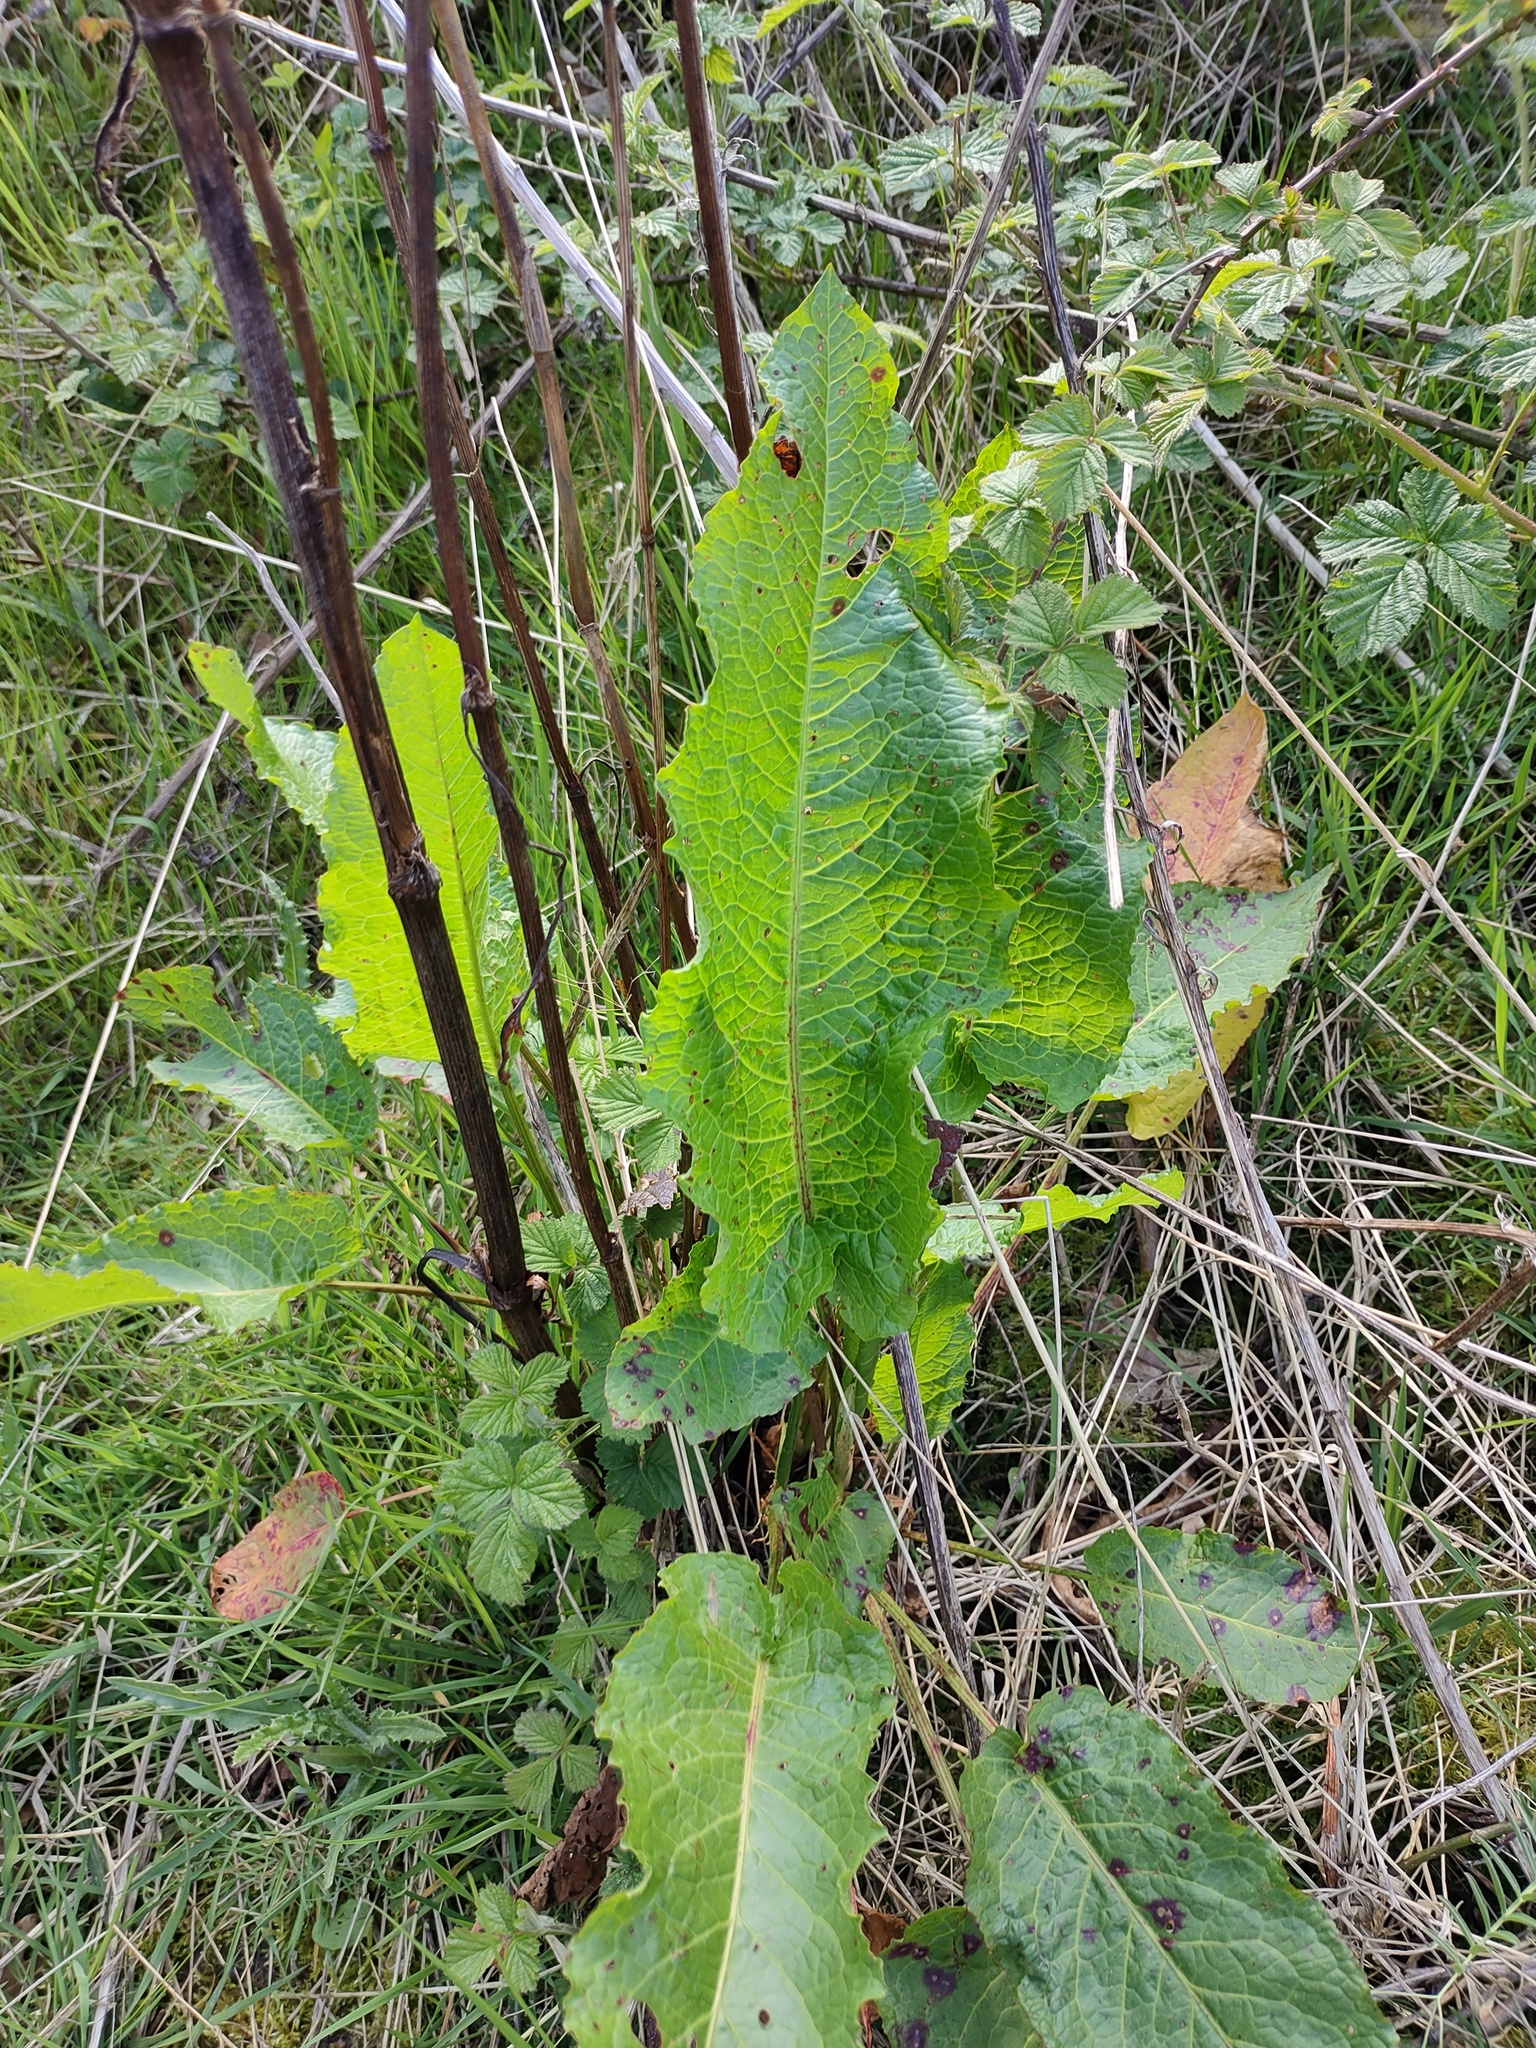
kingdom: Plantae
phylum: Tracheophyta
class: Magnoliopsida
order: Caryophyllales
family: Polygonaceae
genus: Rumex
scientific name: Rumex obtusifolius
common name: Bitter dock
